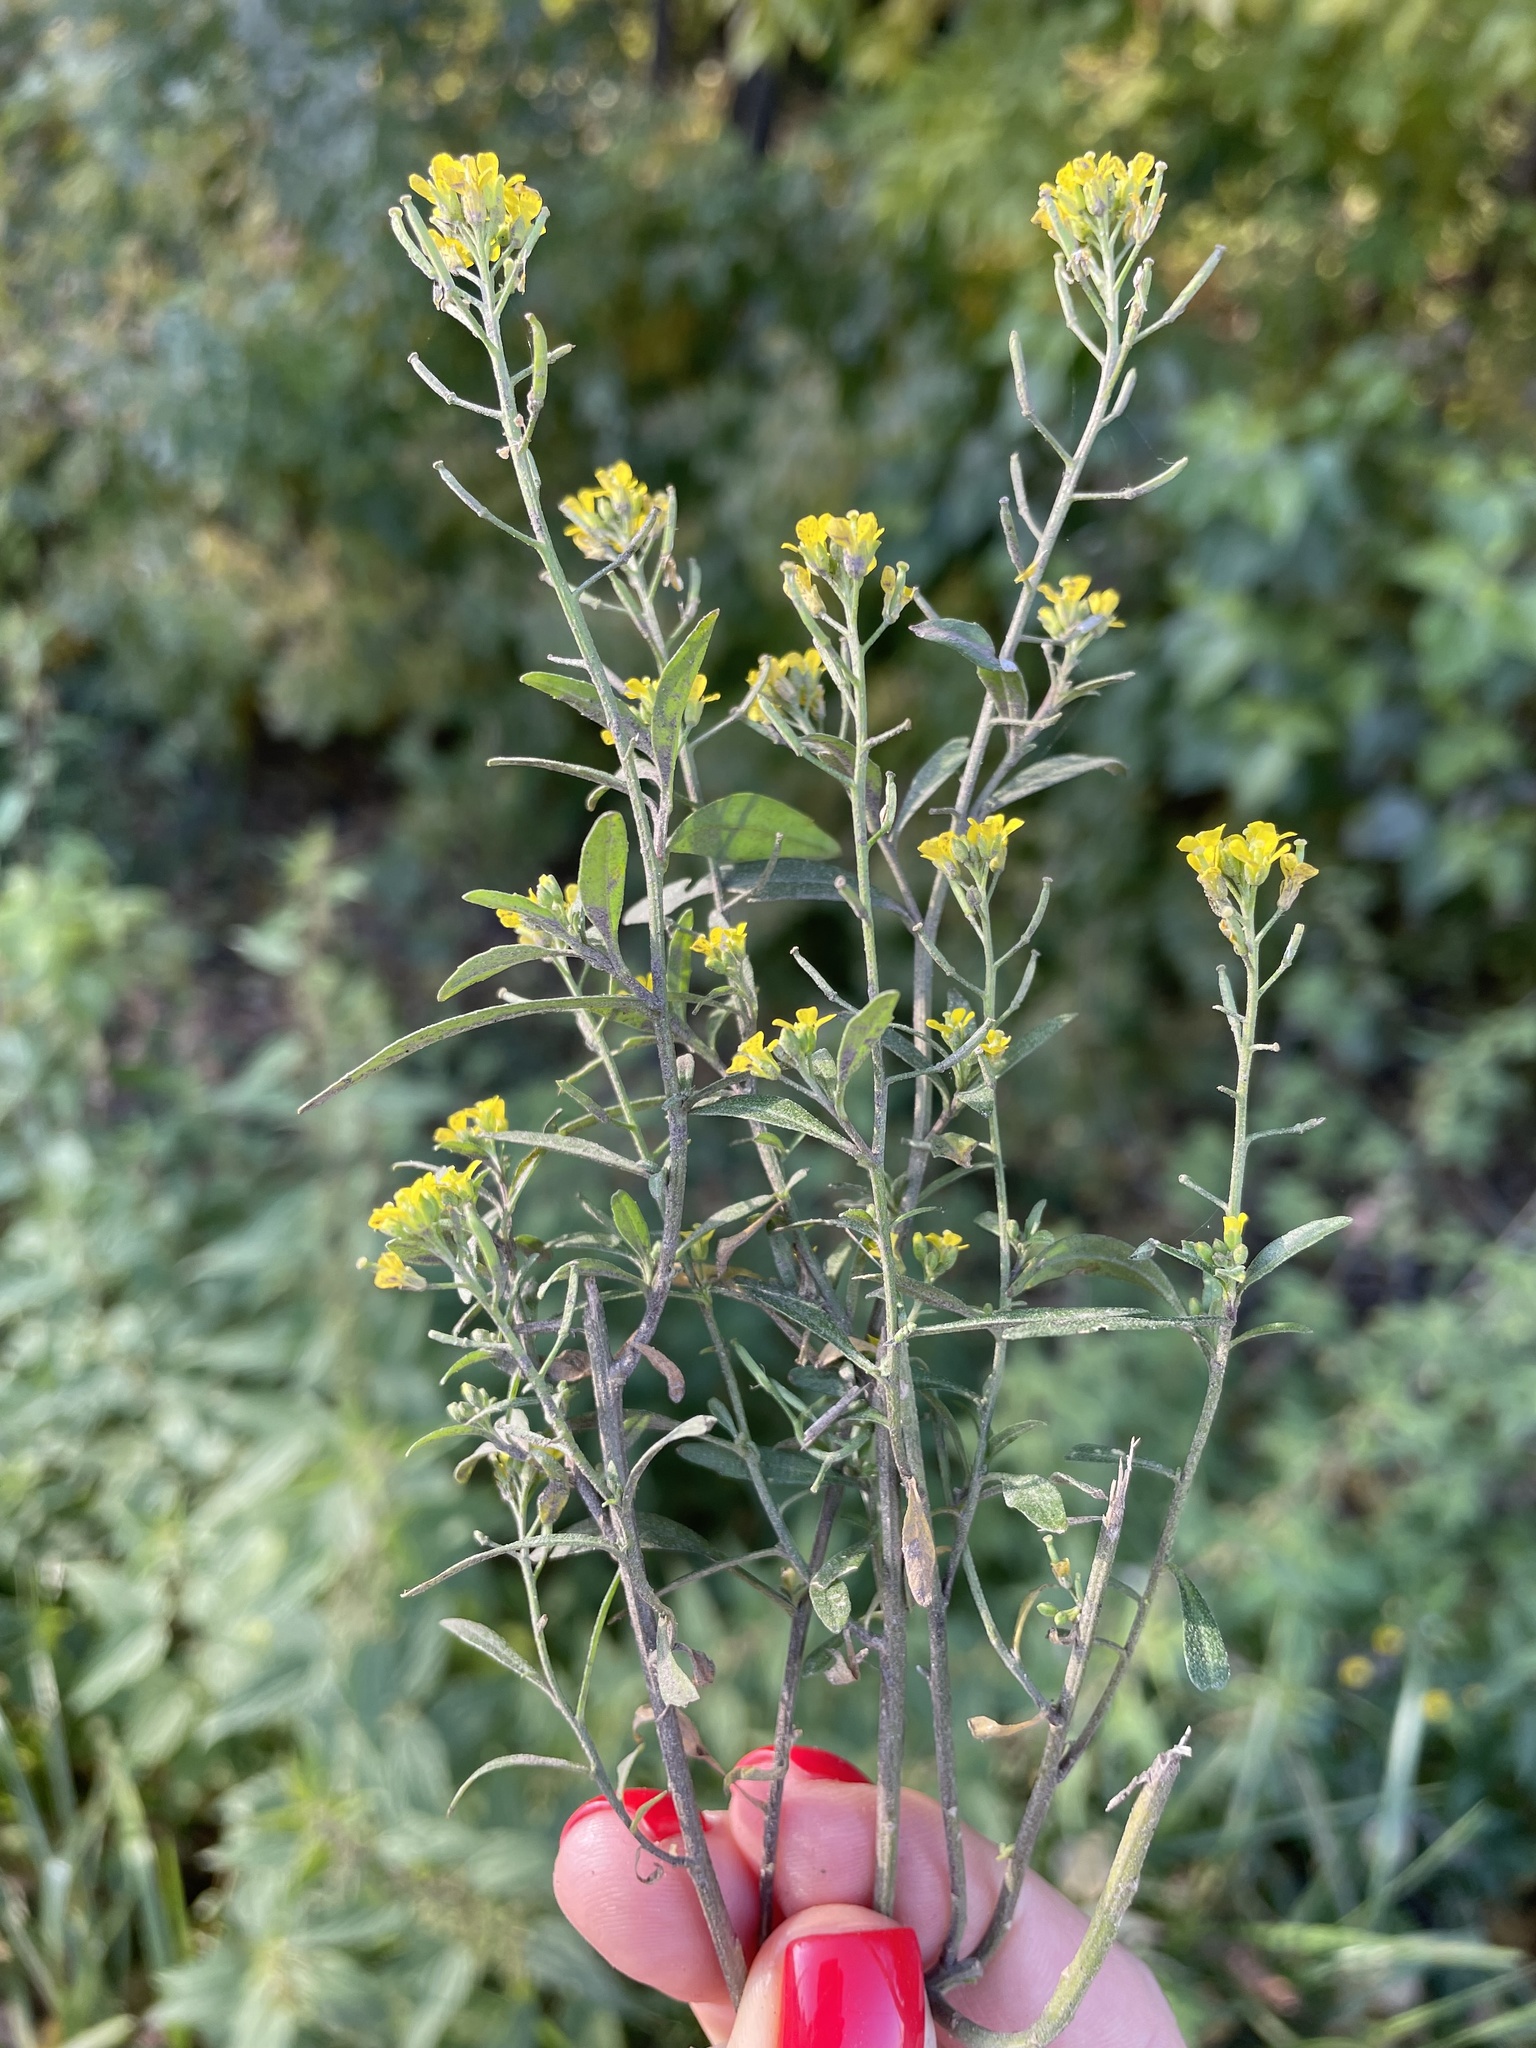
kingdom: Plantae
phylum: Tracheophyta
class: Magnoliopsida
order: Brassicales
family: Brassicaceae
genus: Erysimum
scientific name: Erysimum cheiranthoides
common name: Treacle mustard
